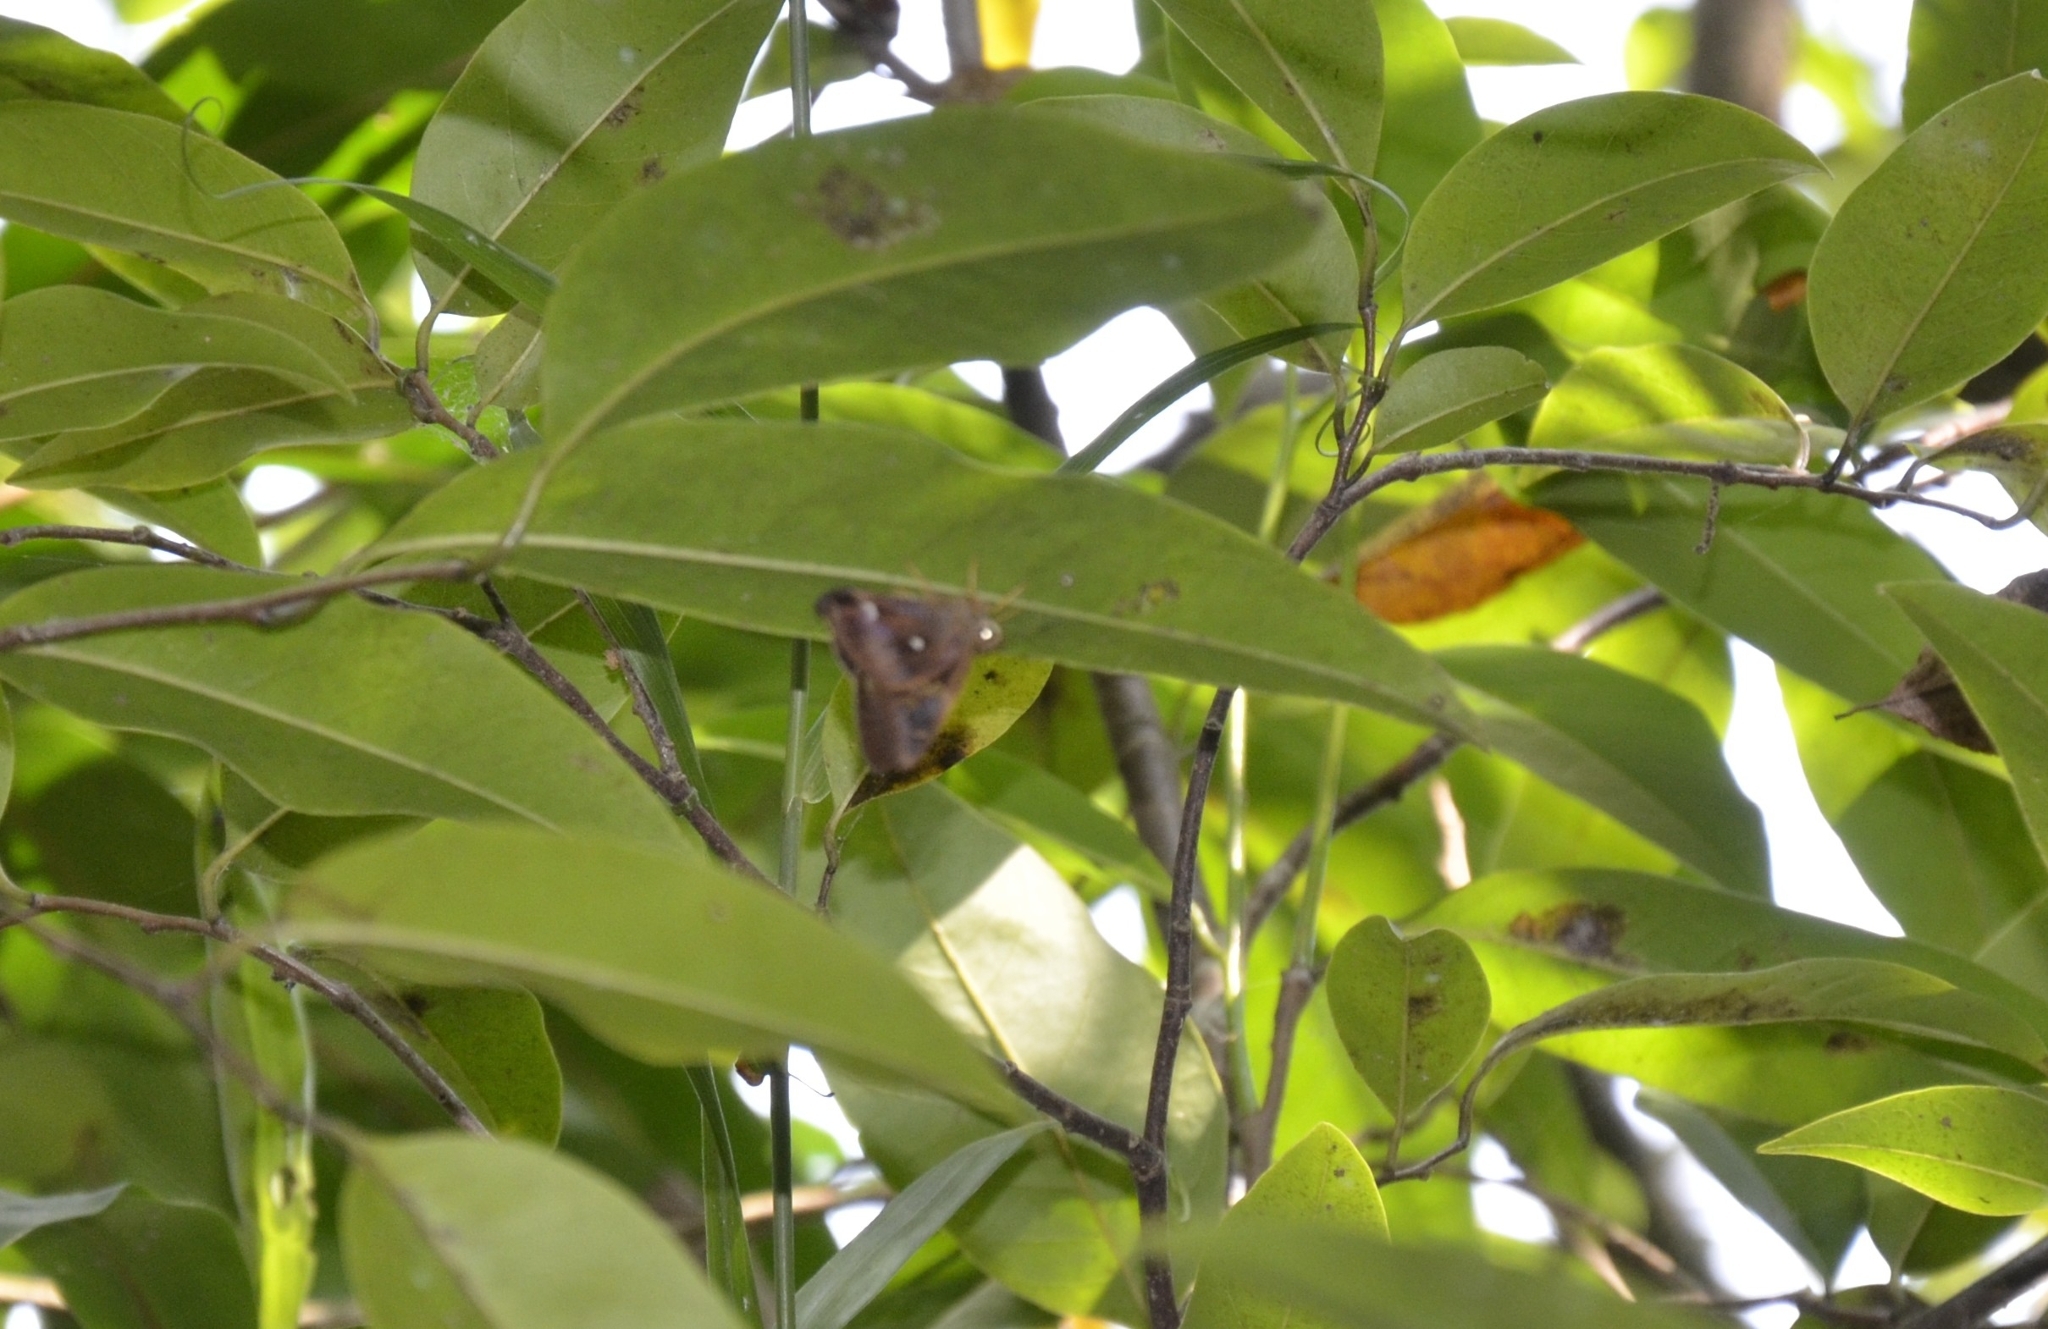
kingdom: Animalia
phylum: Arthropoda
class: Insecta
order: Lepidoptera
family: Hesperiidae
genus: Hasora
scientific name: Hasora badra
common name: Common awl
